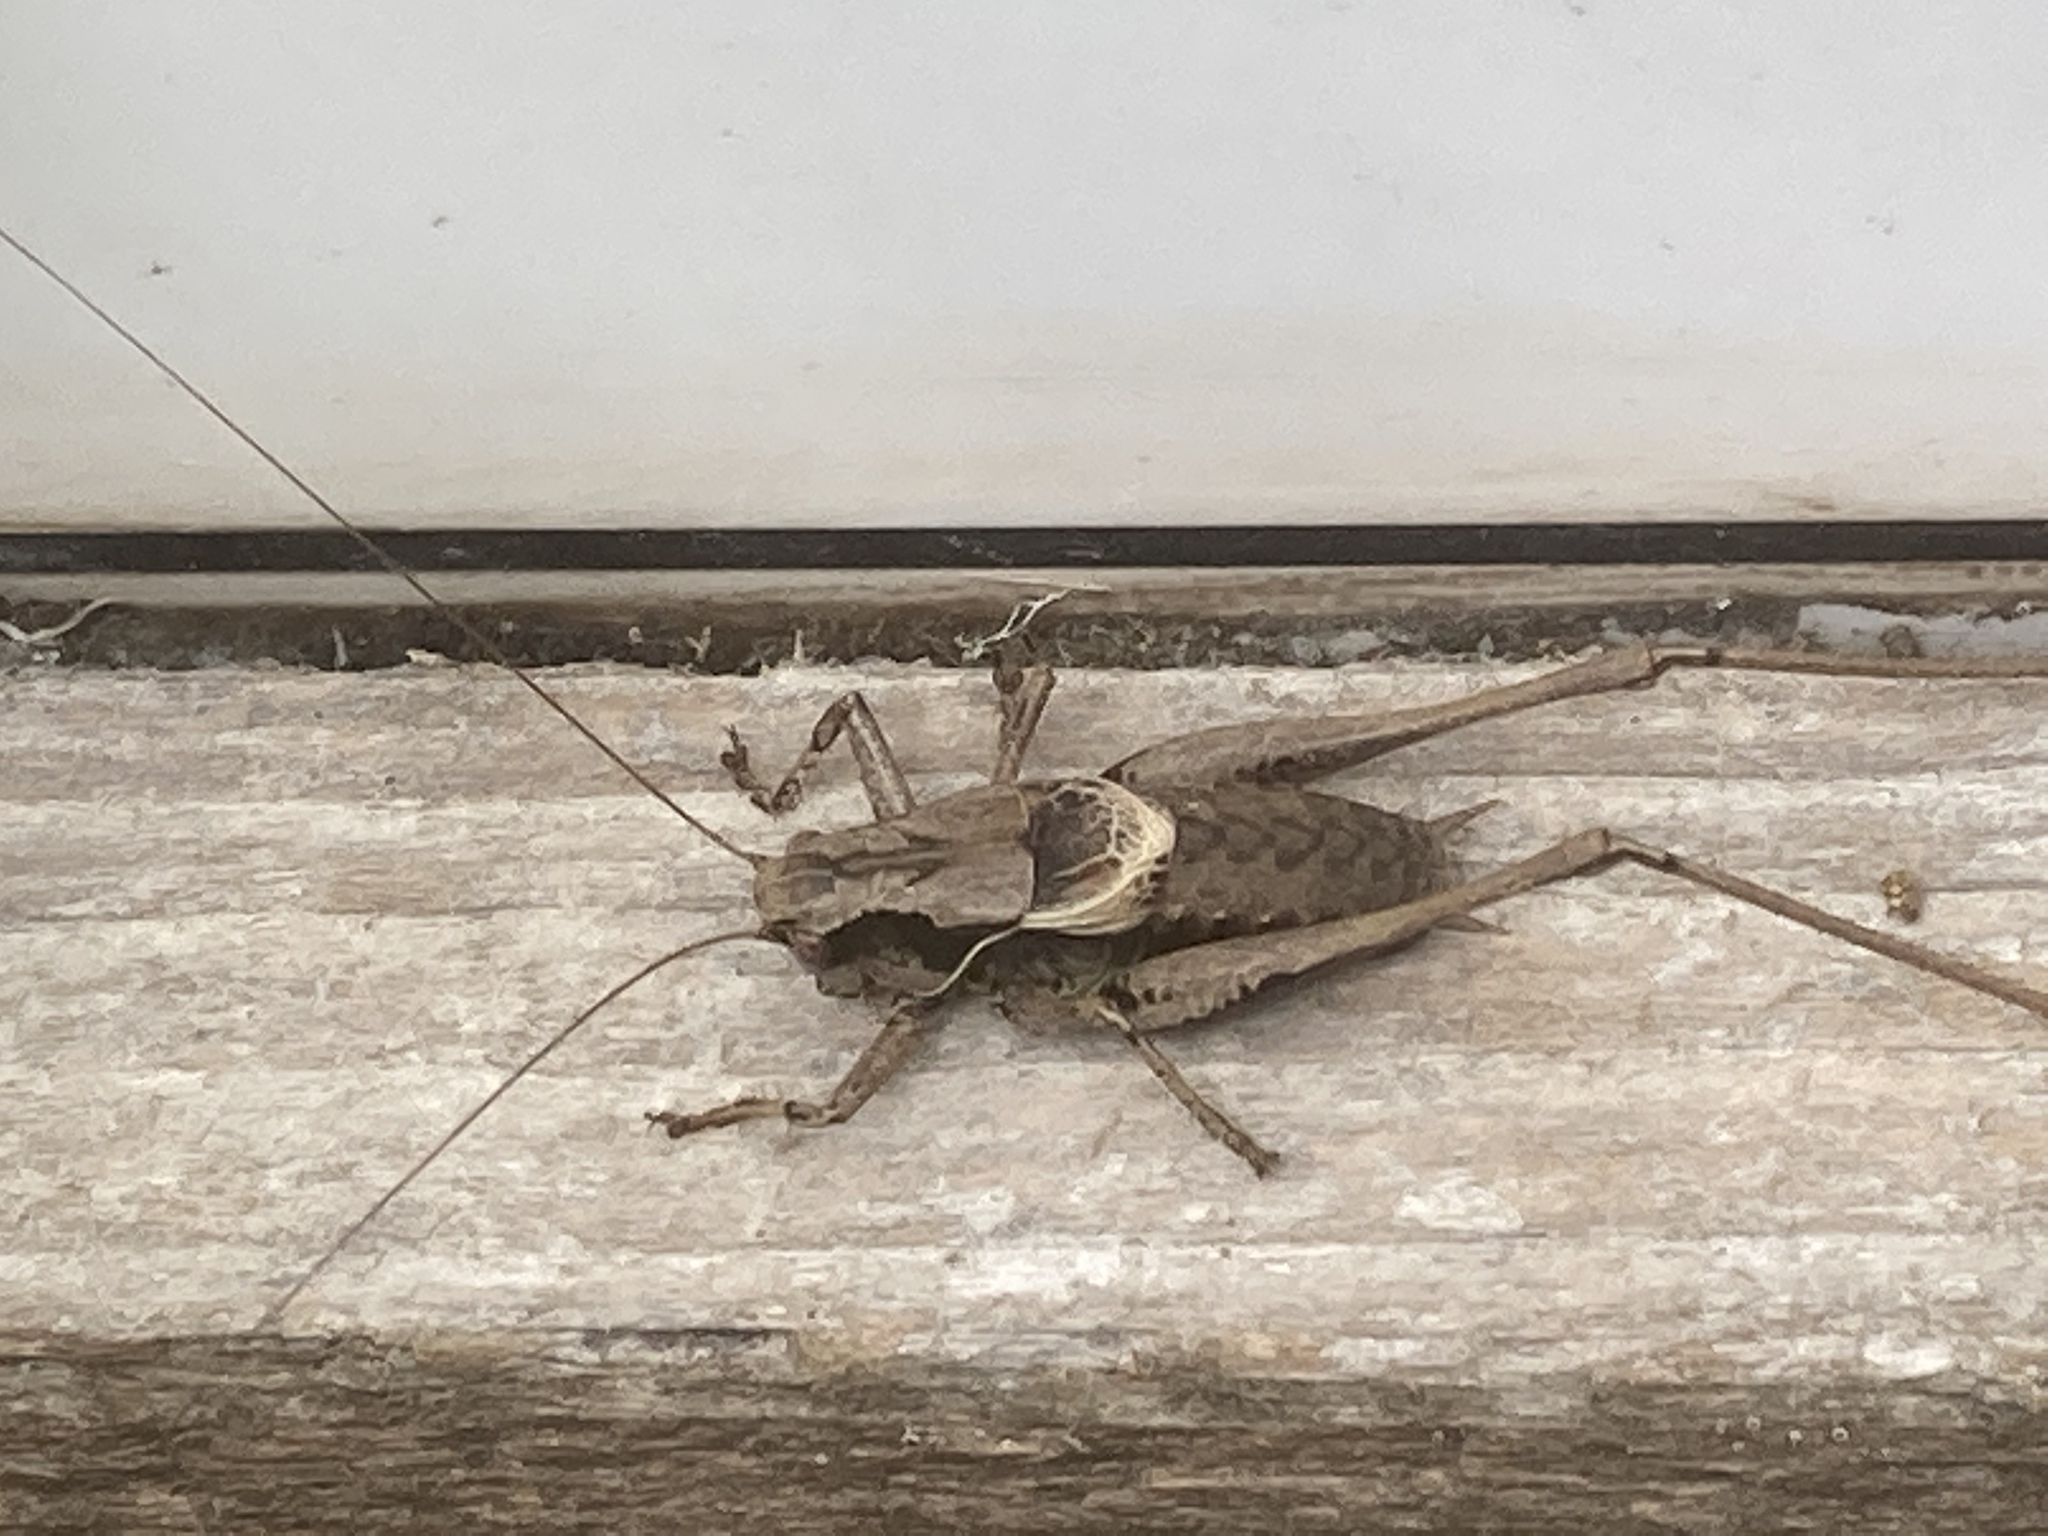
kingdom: Animalia
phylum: Arthropoda
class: Insecta
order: Orthoptera
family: Tettigoniidae
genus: Pholidoptera
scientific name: Pholidoptera griseoaptera
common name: Dark bush-cricket
